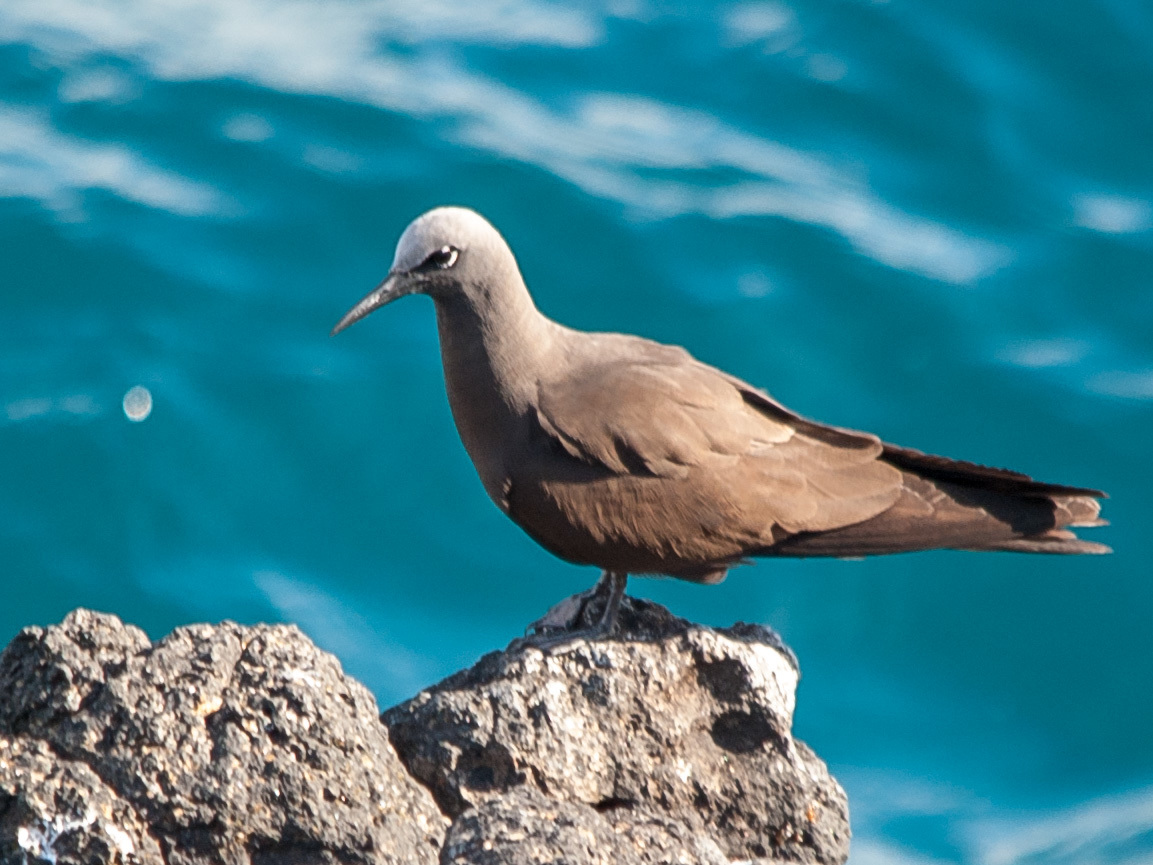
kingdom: Animalia
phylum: Chordata
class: Aves
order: Charadriiformes
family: Laridae
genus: Anous
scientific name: Anous stolidus
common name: Brown noddy
